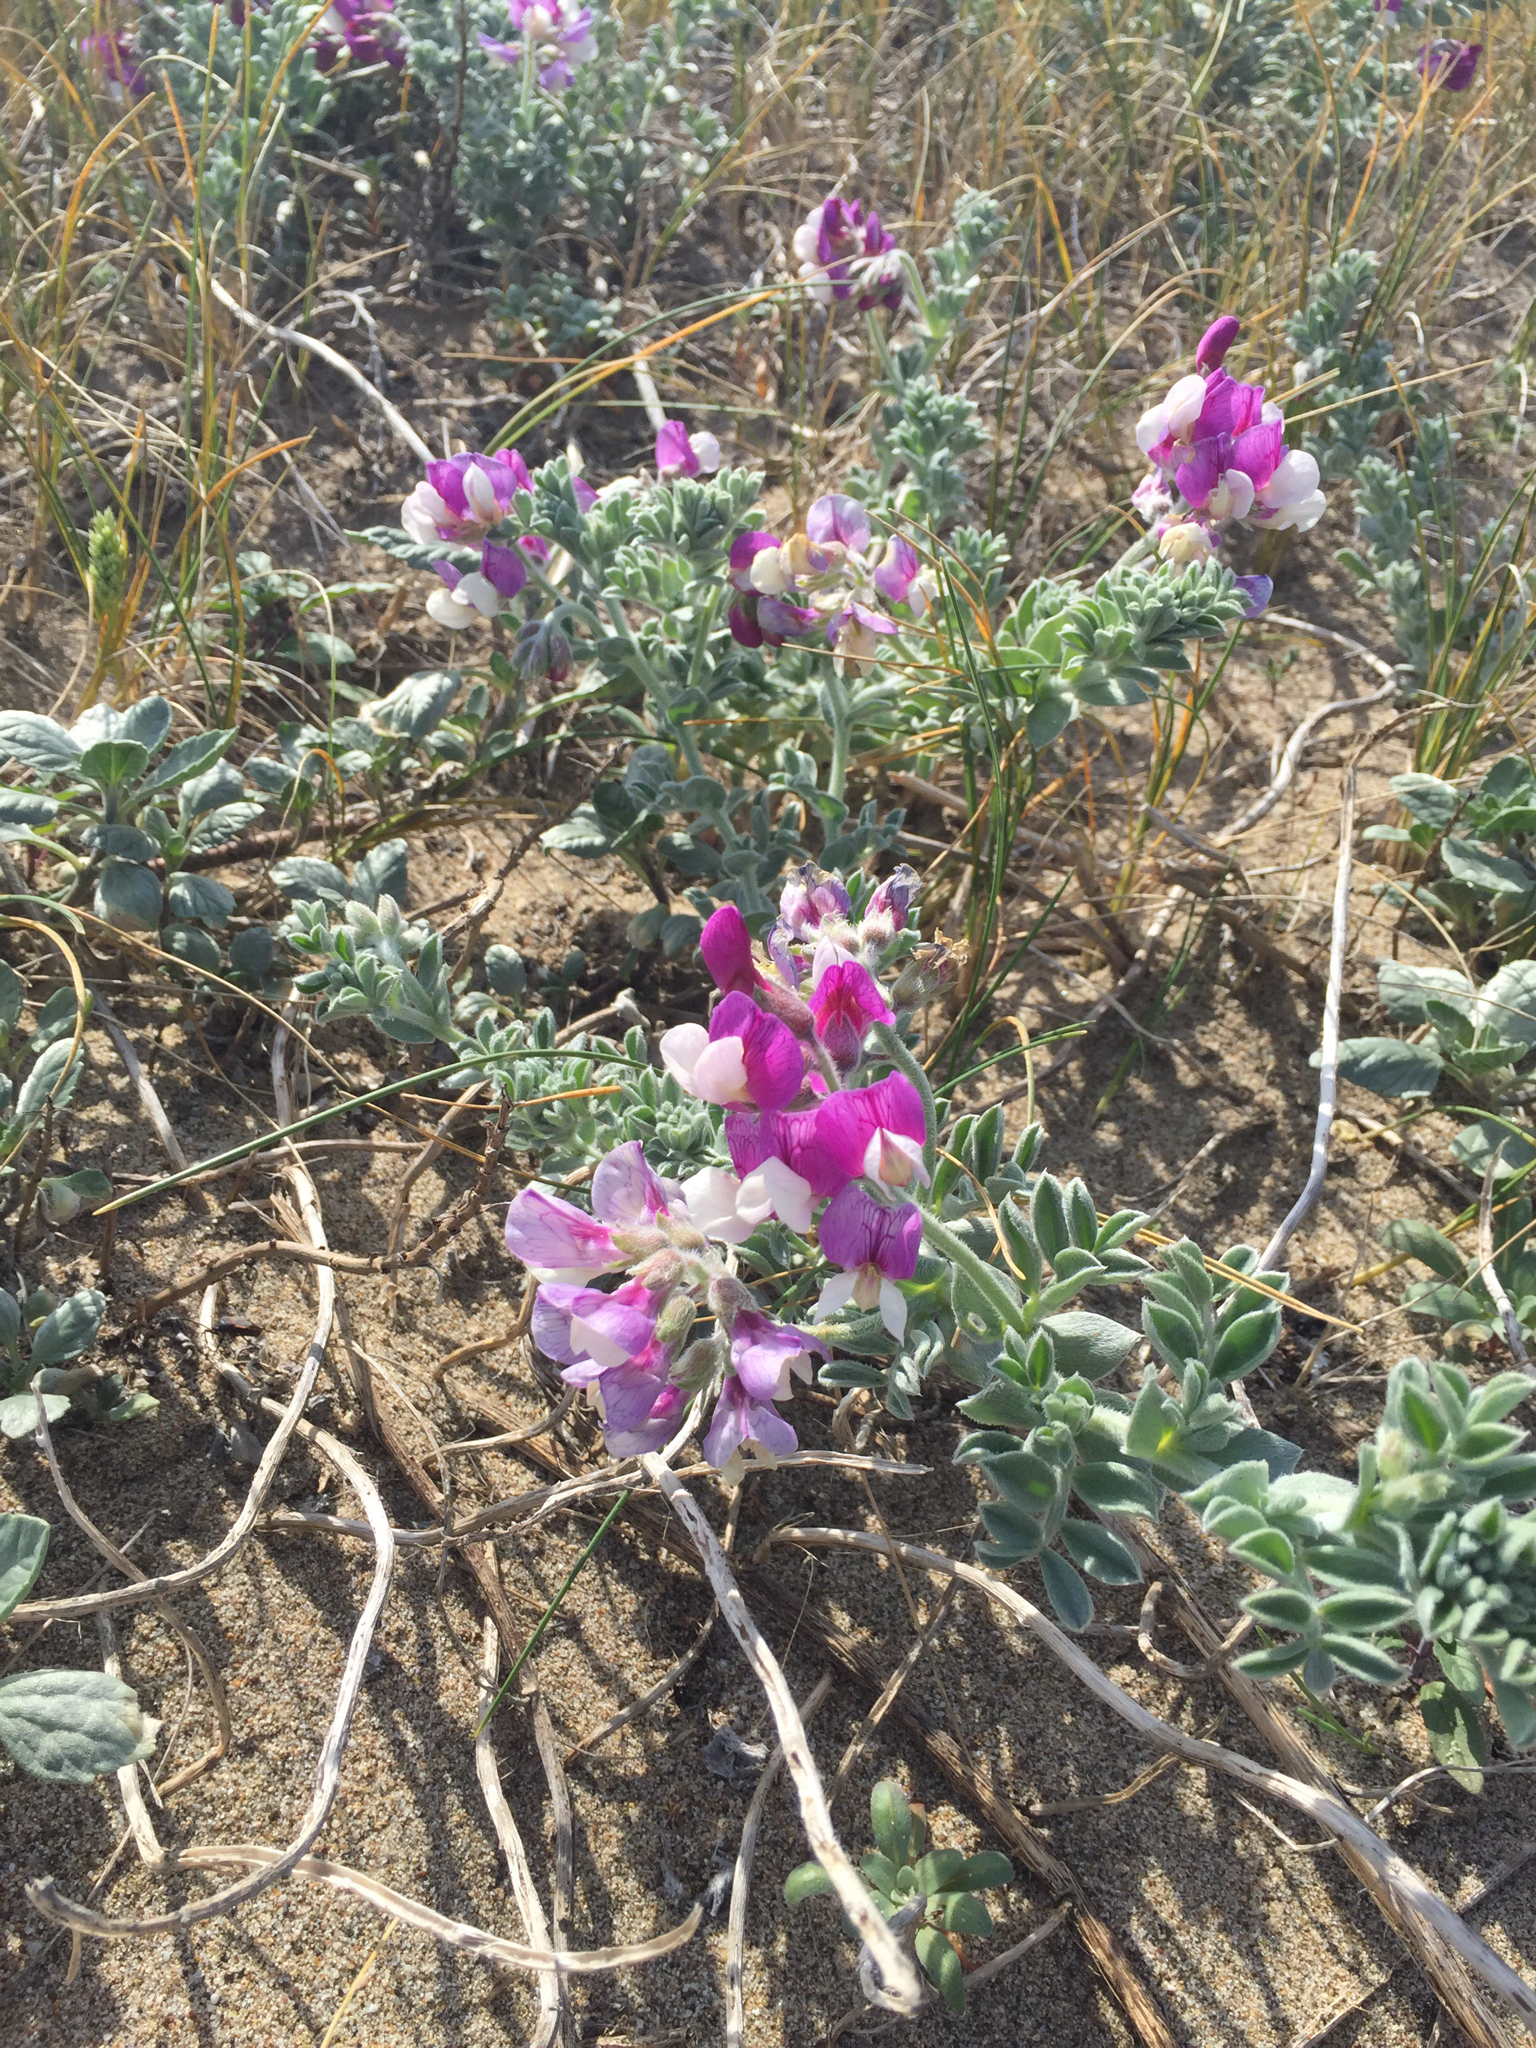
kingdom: Plantae
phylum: Tracheophyta
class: Magnoliopsida
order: Fabales
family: Fabaceae
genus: Lathyrus
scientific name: Lathyrus littoralis
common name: Dune sweet pea
